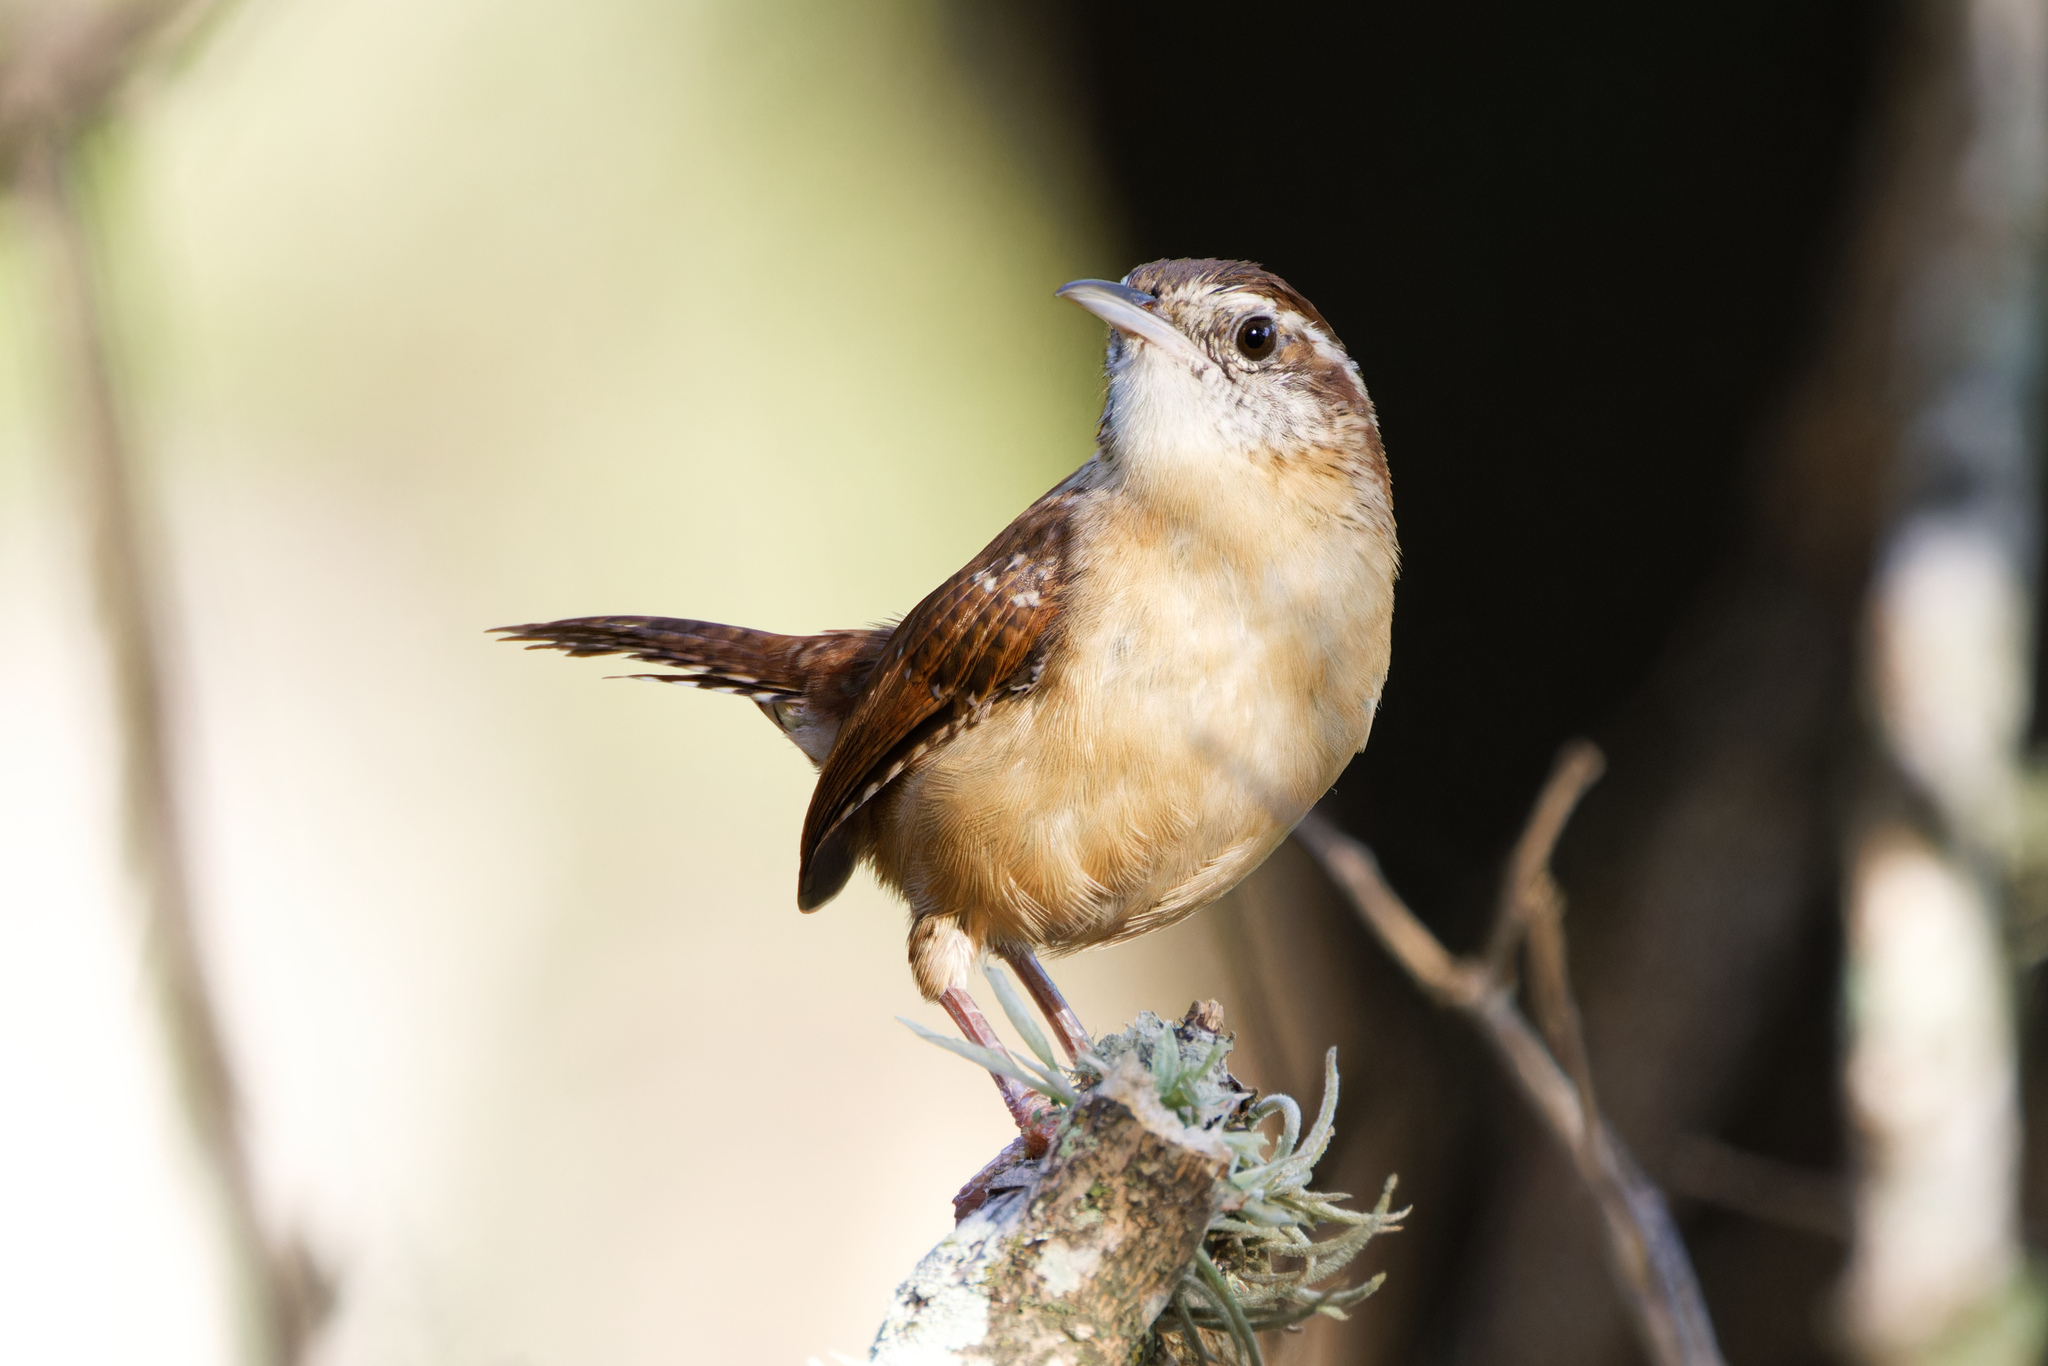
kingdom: Animalia
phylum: Chordata
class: Aves
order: Passeriformes
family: Troglodytidae
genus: Thryothorus
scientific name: Thryothorus ludovicianus
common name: Carolina wren
